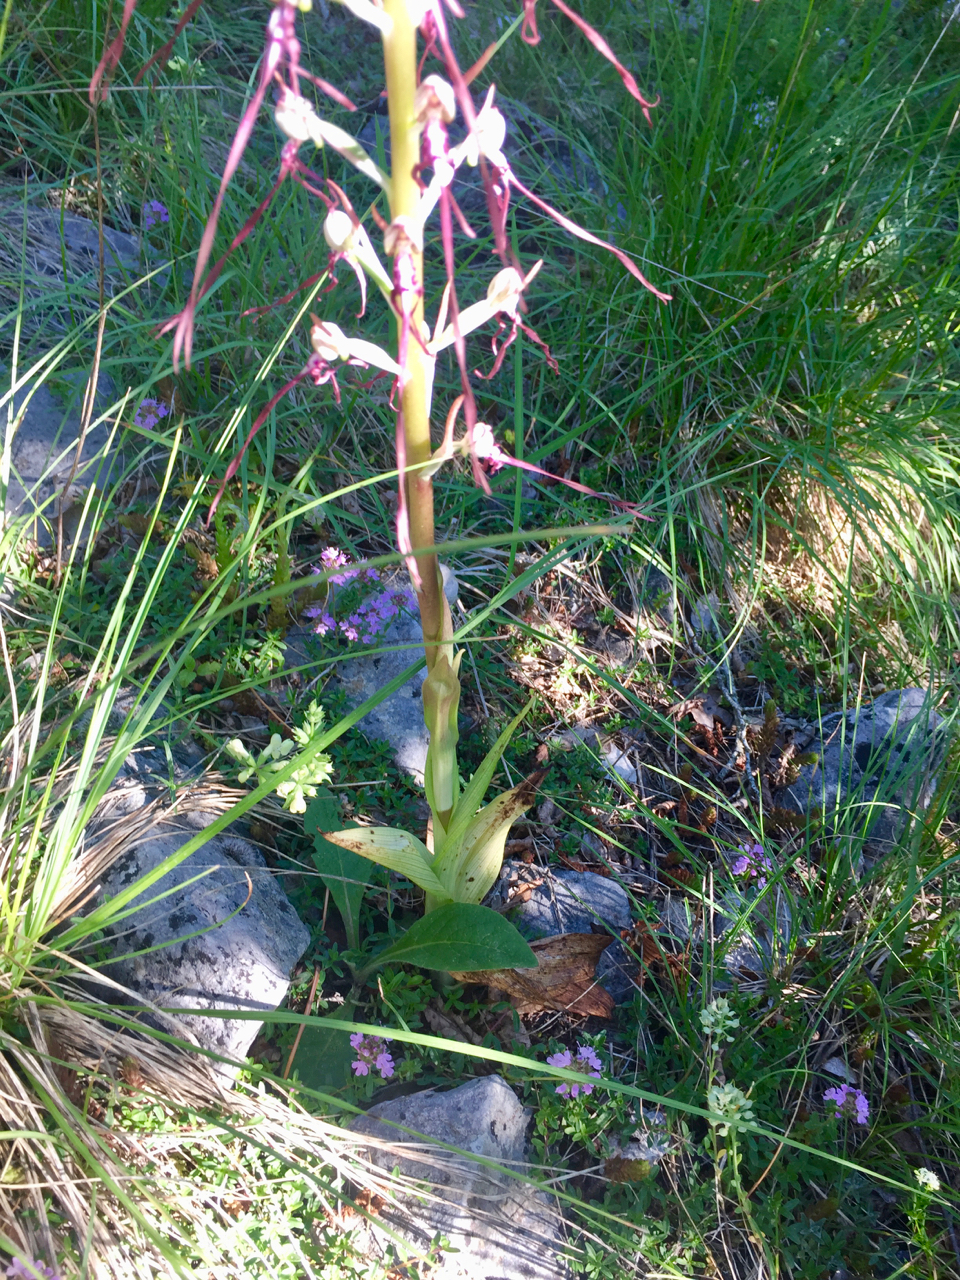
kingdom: Plantae
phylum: Tracheophyta
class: Liliopsida
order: Asparagales
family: Orchidaceae
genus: Himantoglossum
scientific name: Himantoglossum adriaticum
